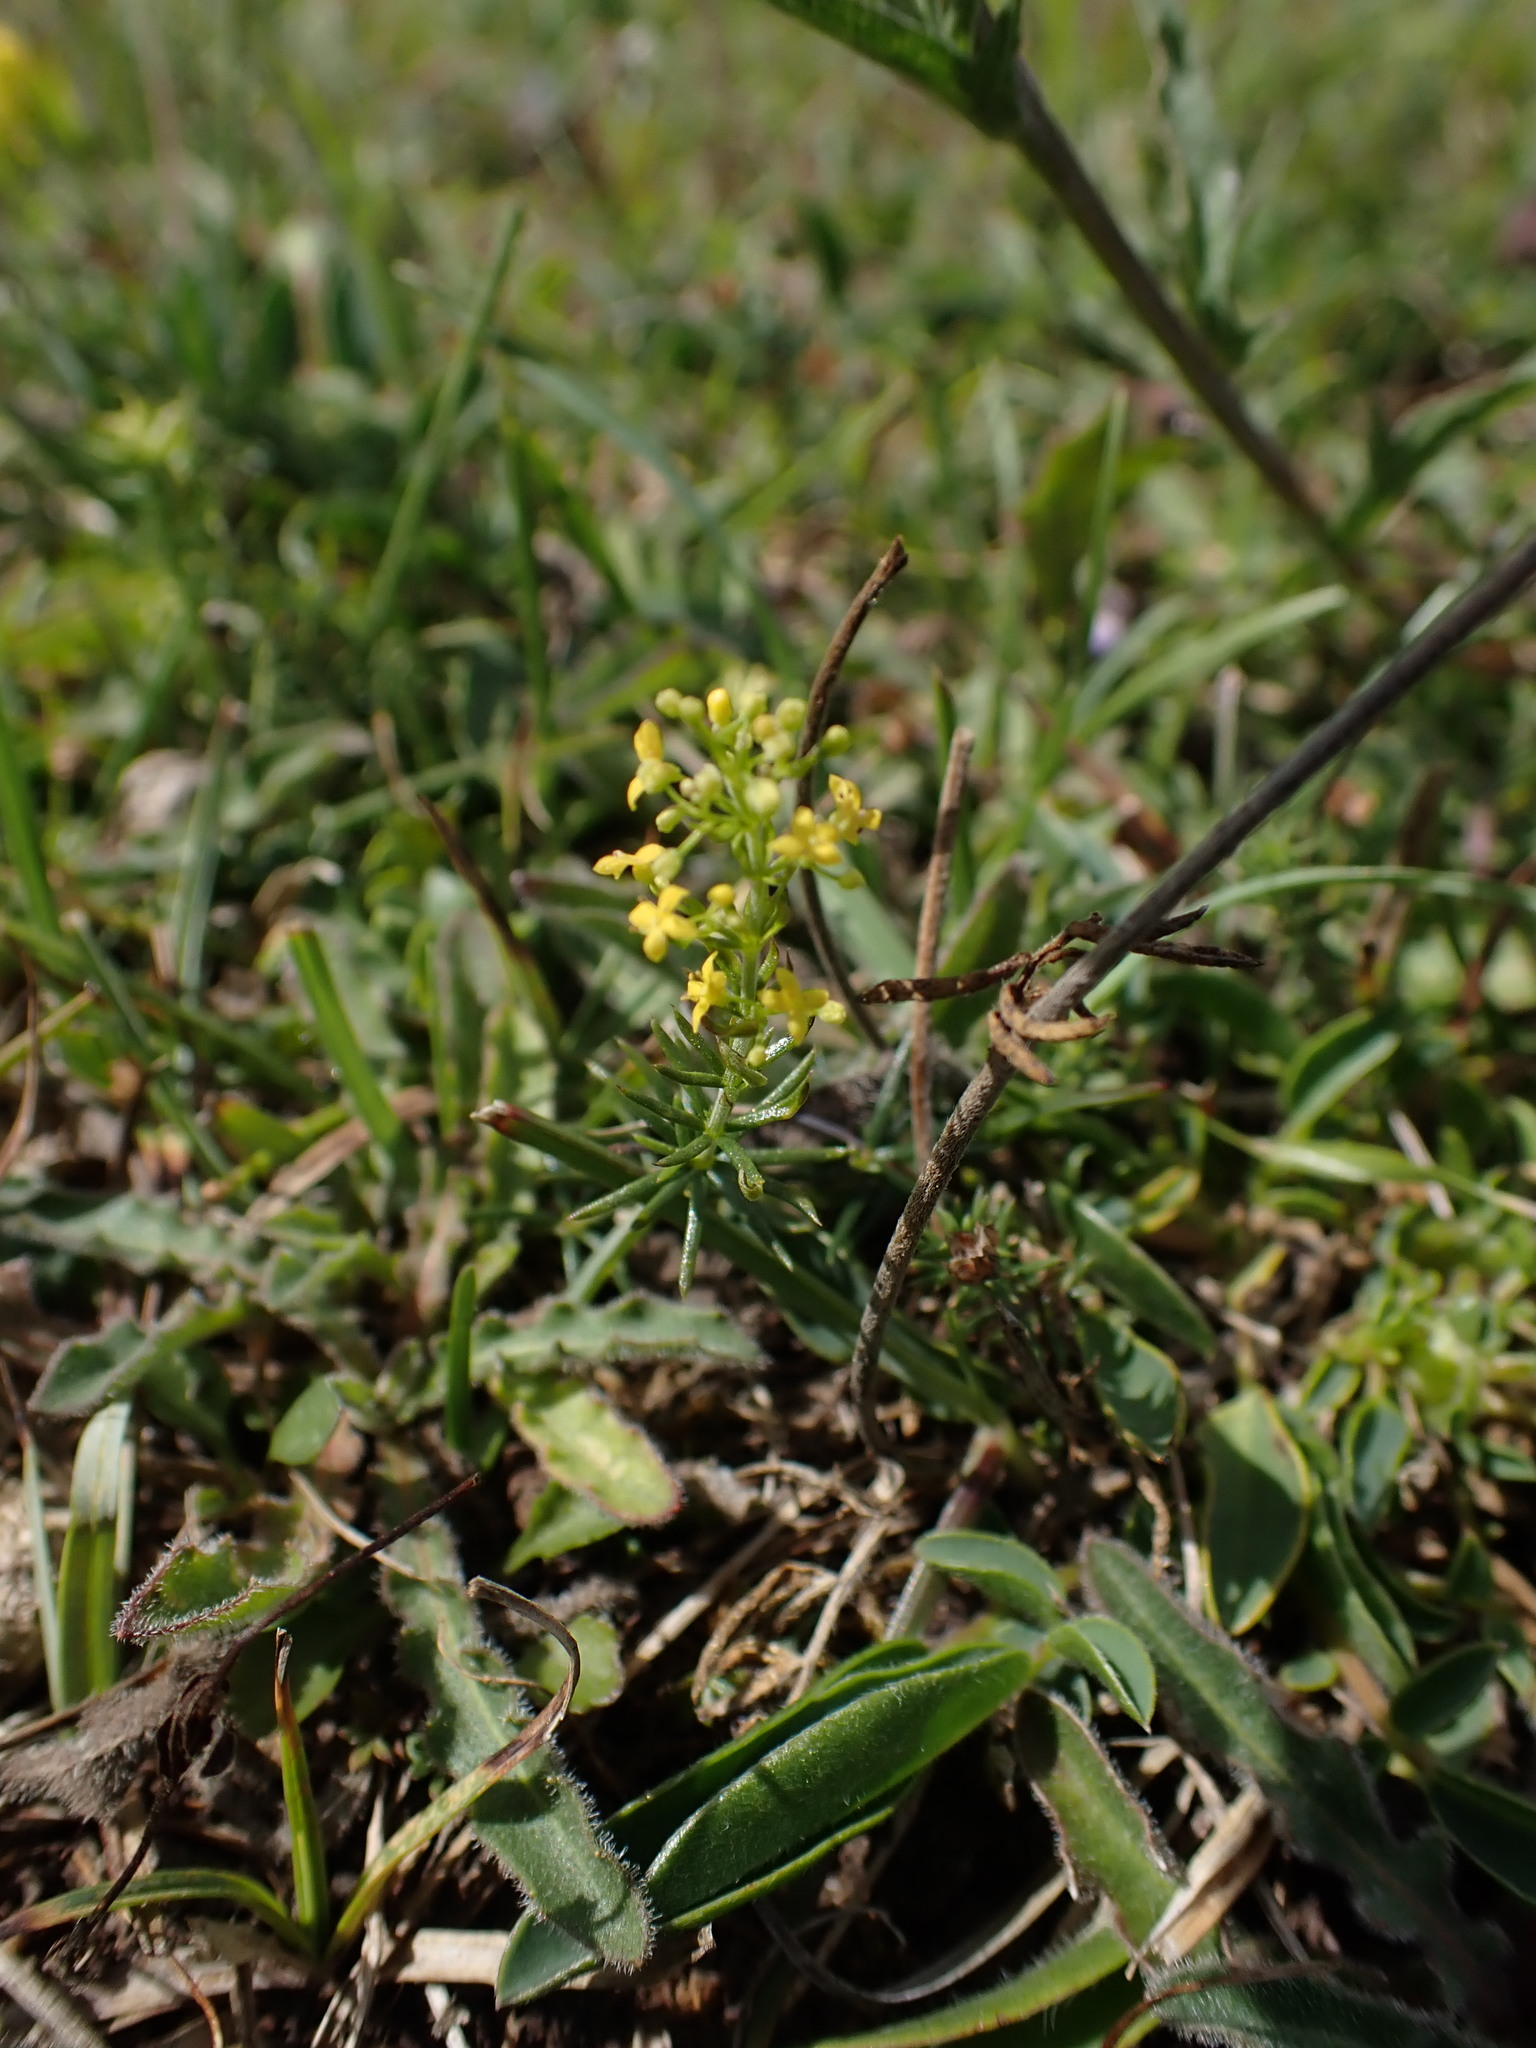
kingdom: Plantae
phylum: Tracheophyta
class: Magnoliopsida
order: Gentianales
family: Rubiaceae
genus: Galium
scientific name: Galium verum
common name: Lady's bedstraw
